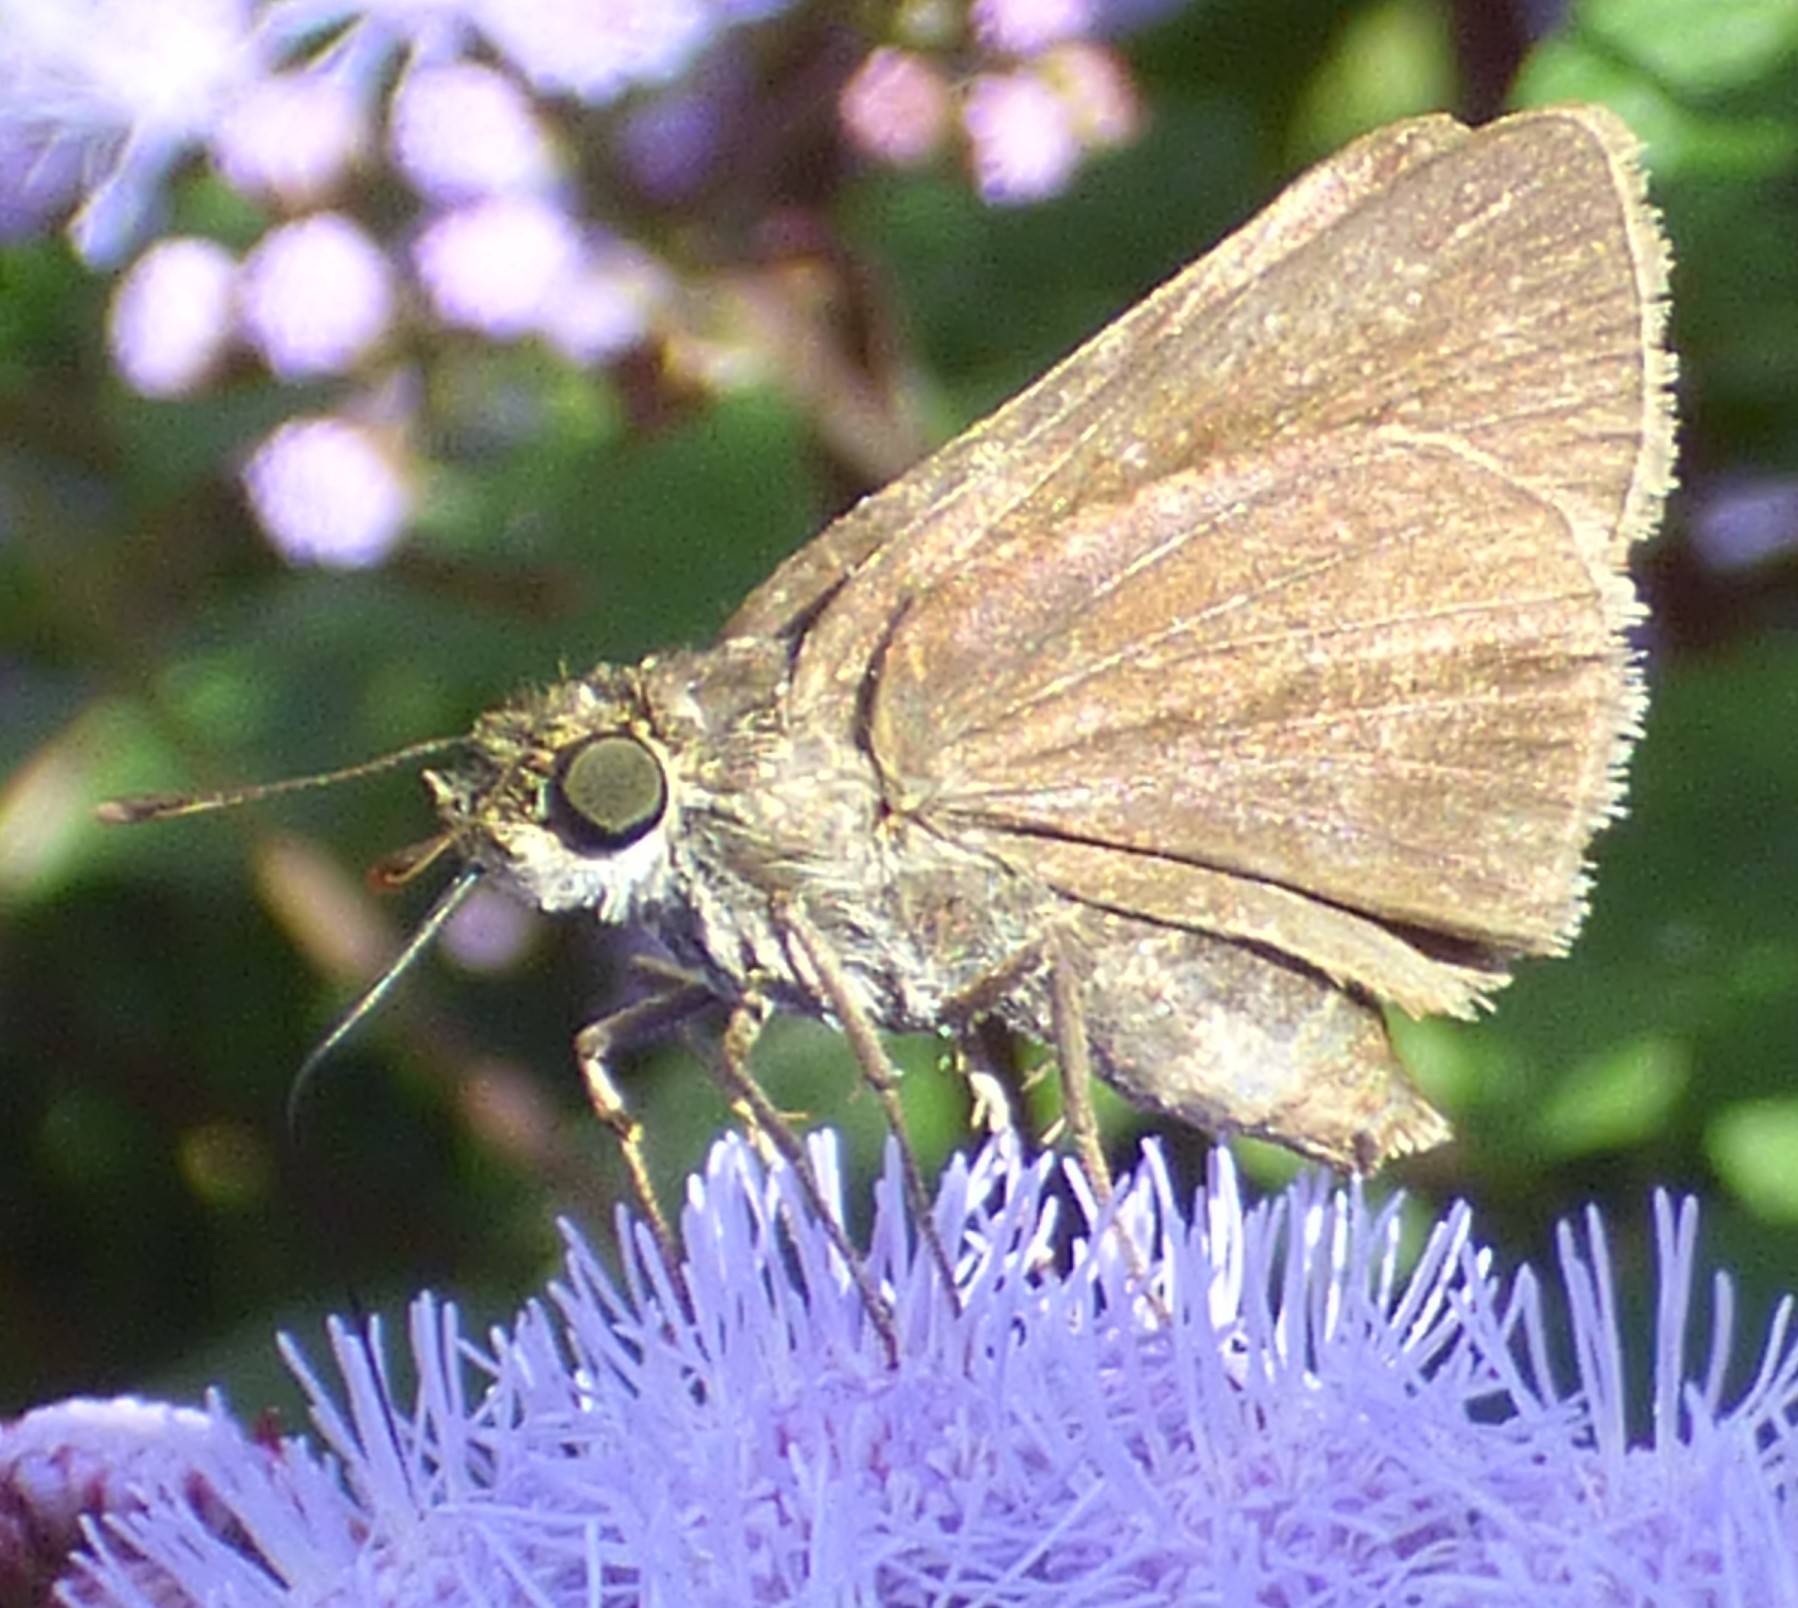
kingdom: Animalia
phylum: Arthropoda
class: Insecta
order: Lepidoptera
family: Hesperiidae
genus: Euphyes
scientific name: Euphyes vestris
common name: Dun skipper
